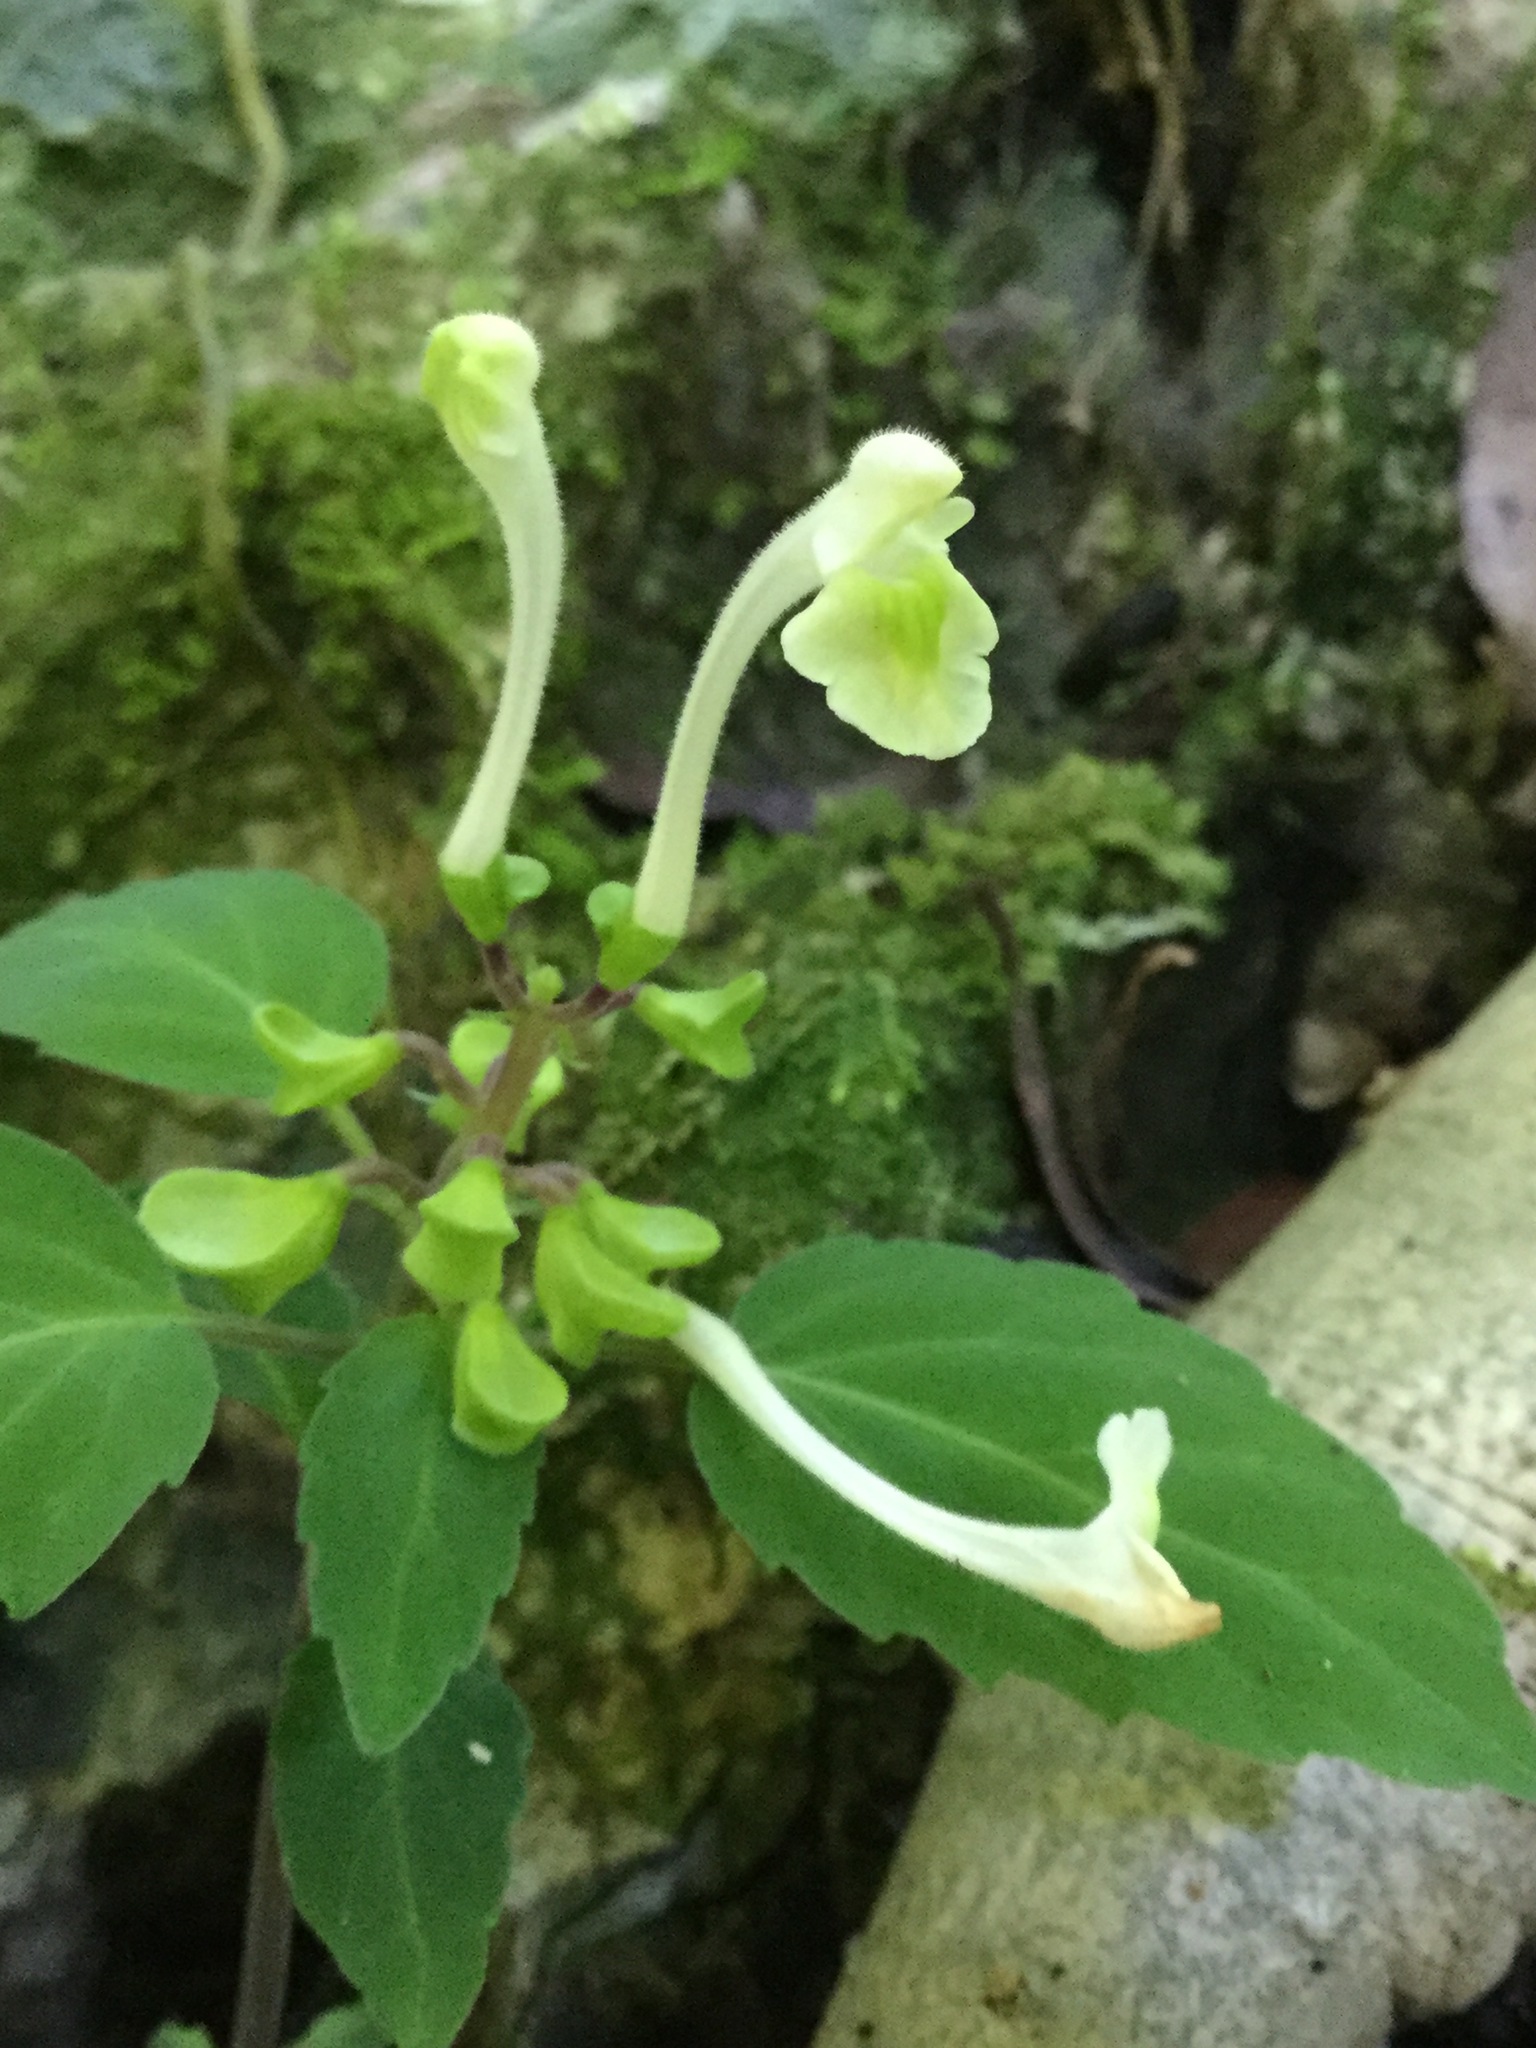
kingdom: Plantae
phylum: Tracheophyta
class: Magnoliopsida
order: Lamiales
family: Lamiaceae
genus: Scutellaria
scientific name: Scutellaria orichalcea
